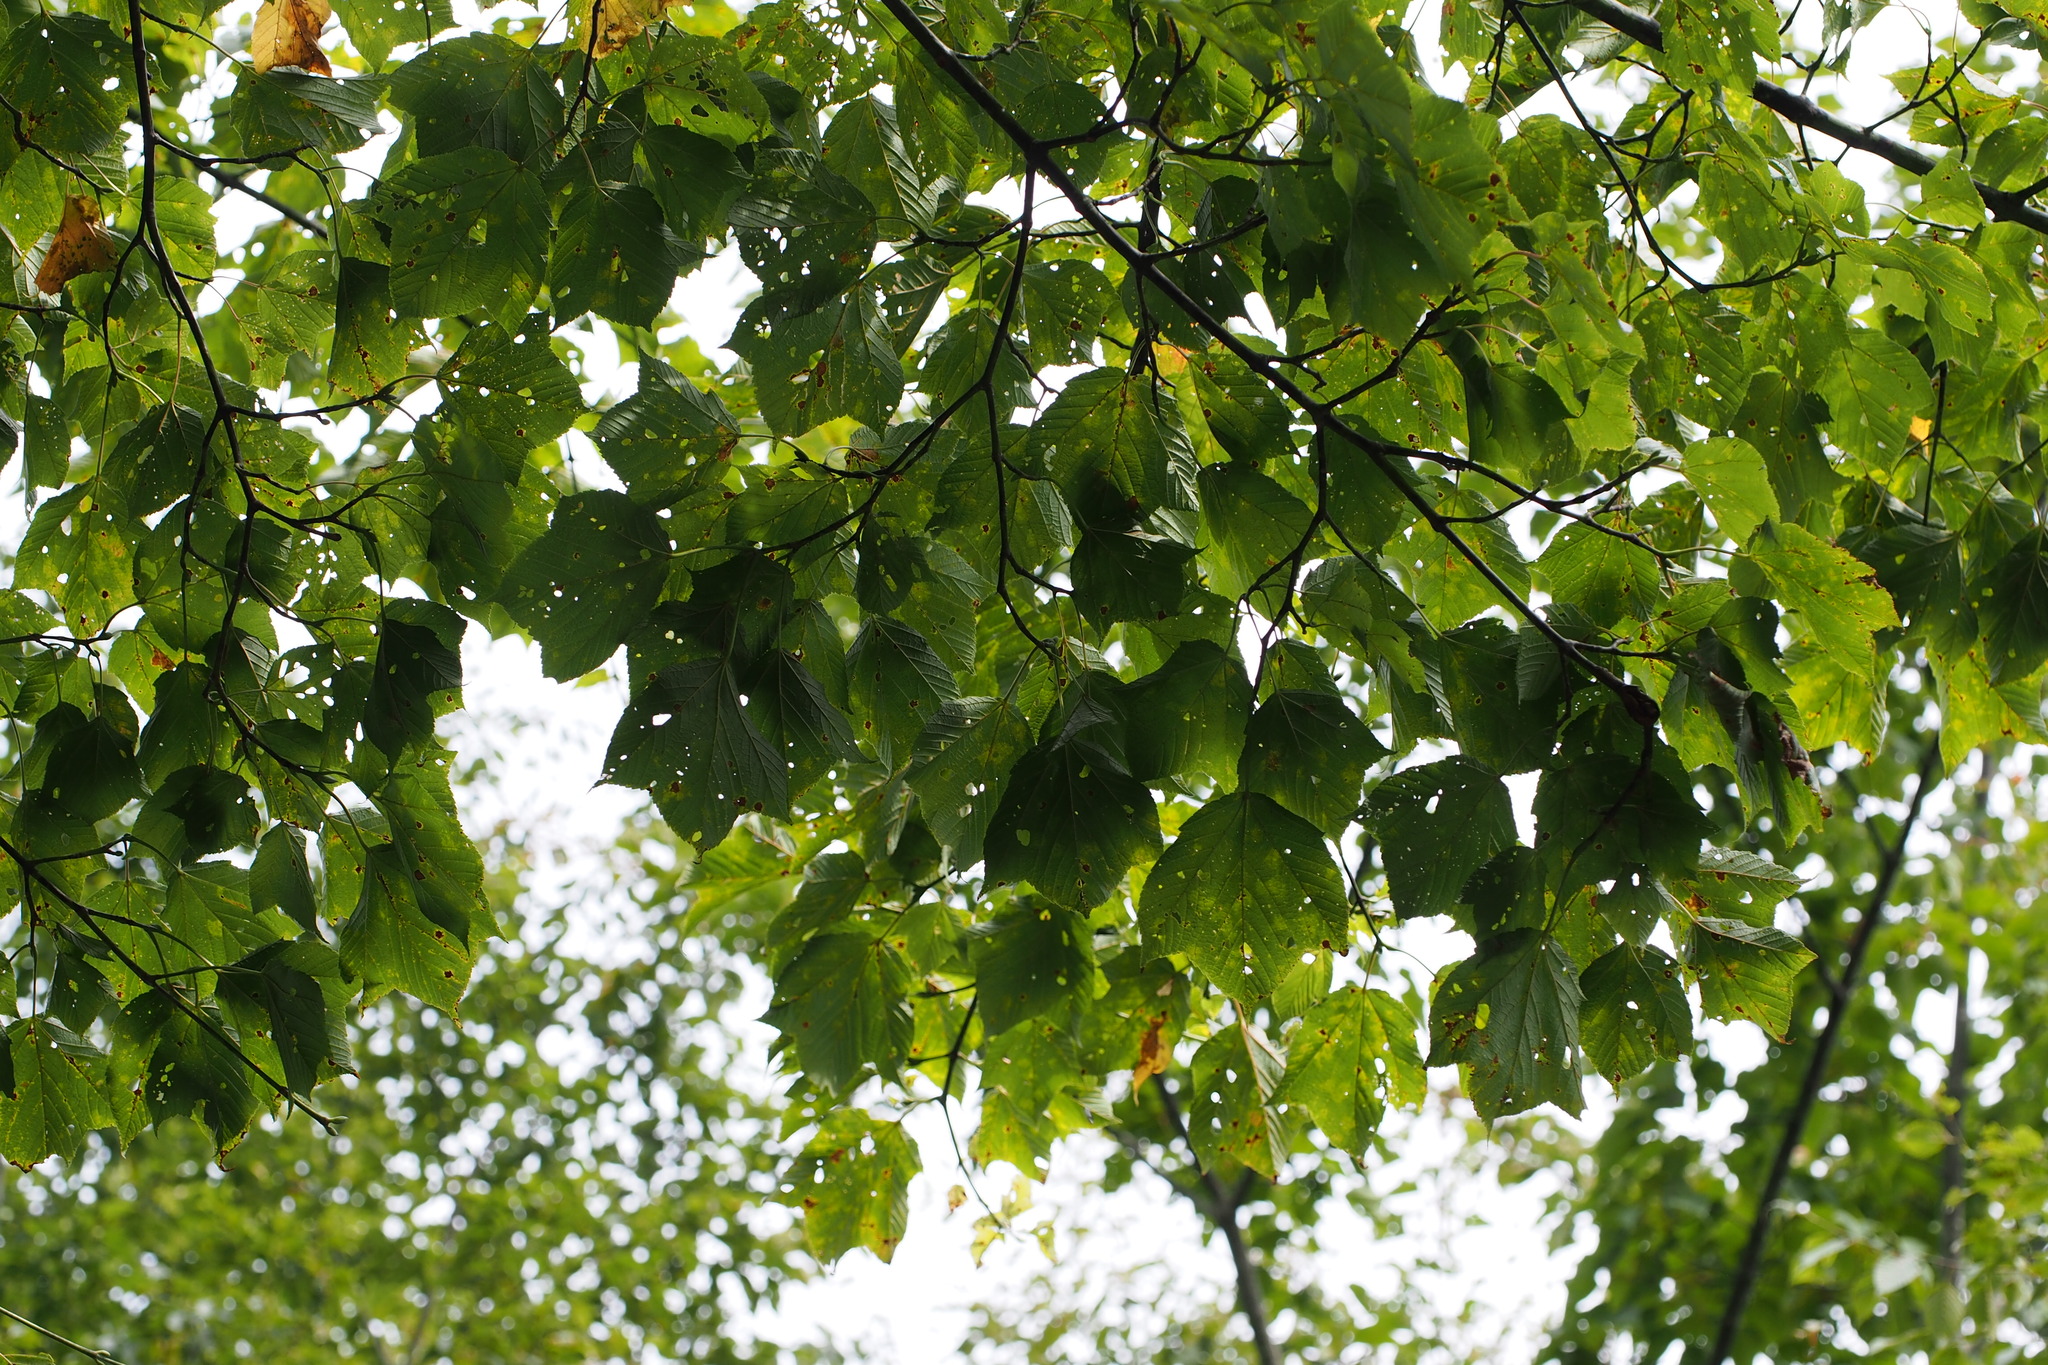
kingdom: Plantae
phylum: Tracheophyta
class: Magnoliopsida
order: Sapindales
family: Sapindaceae
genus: Acer
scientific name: Acer rufinerve
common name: Red veined maple
